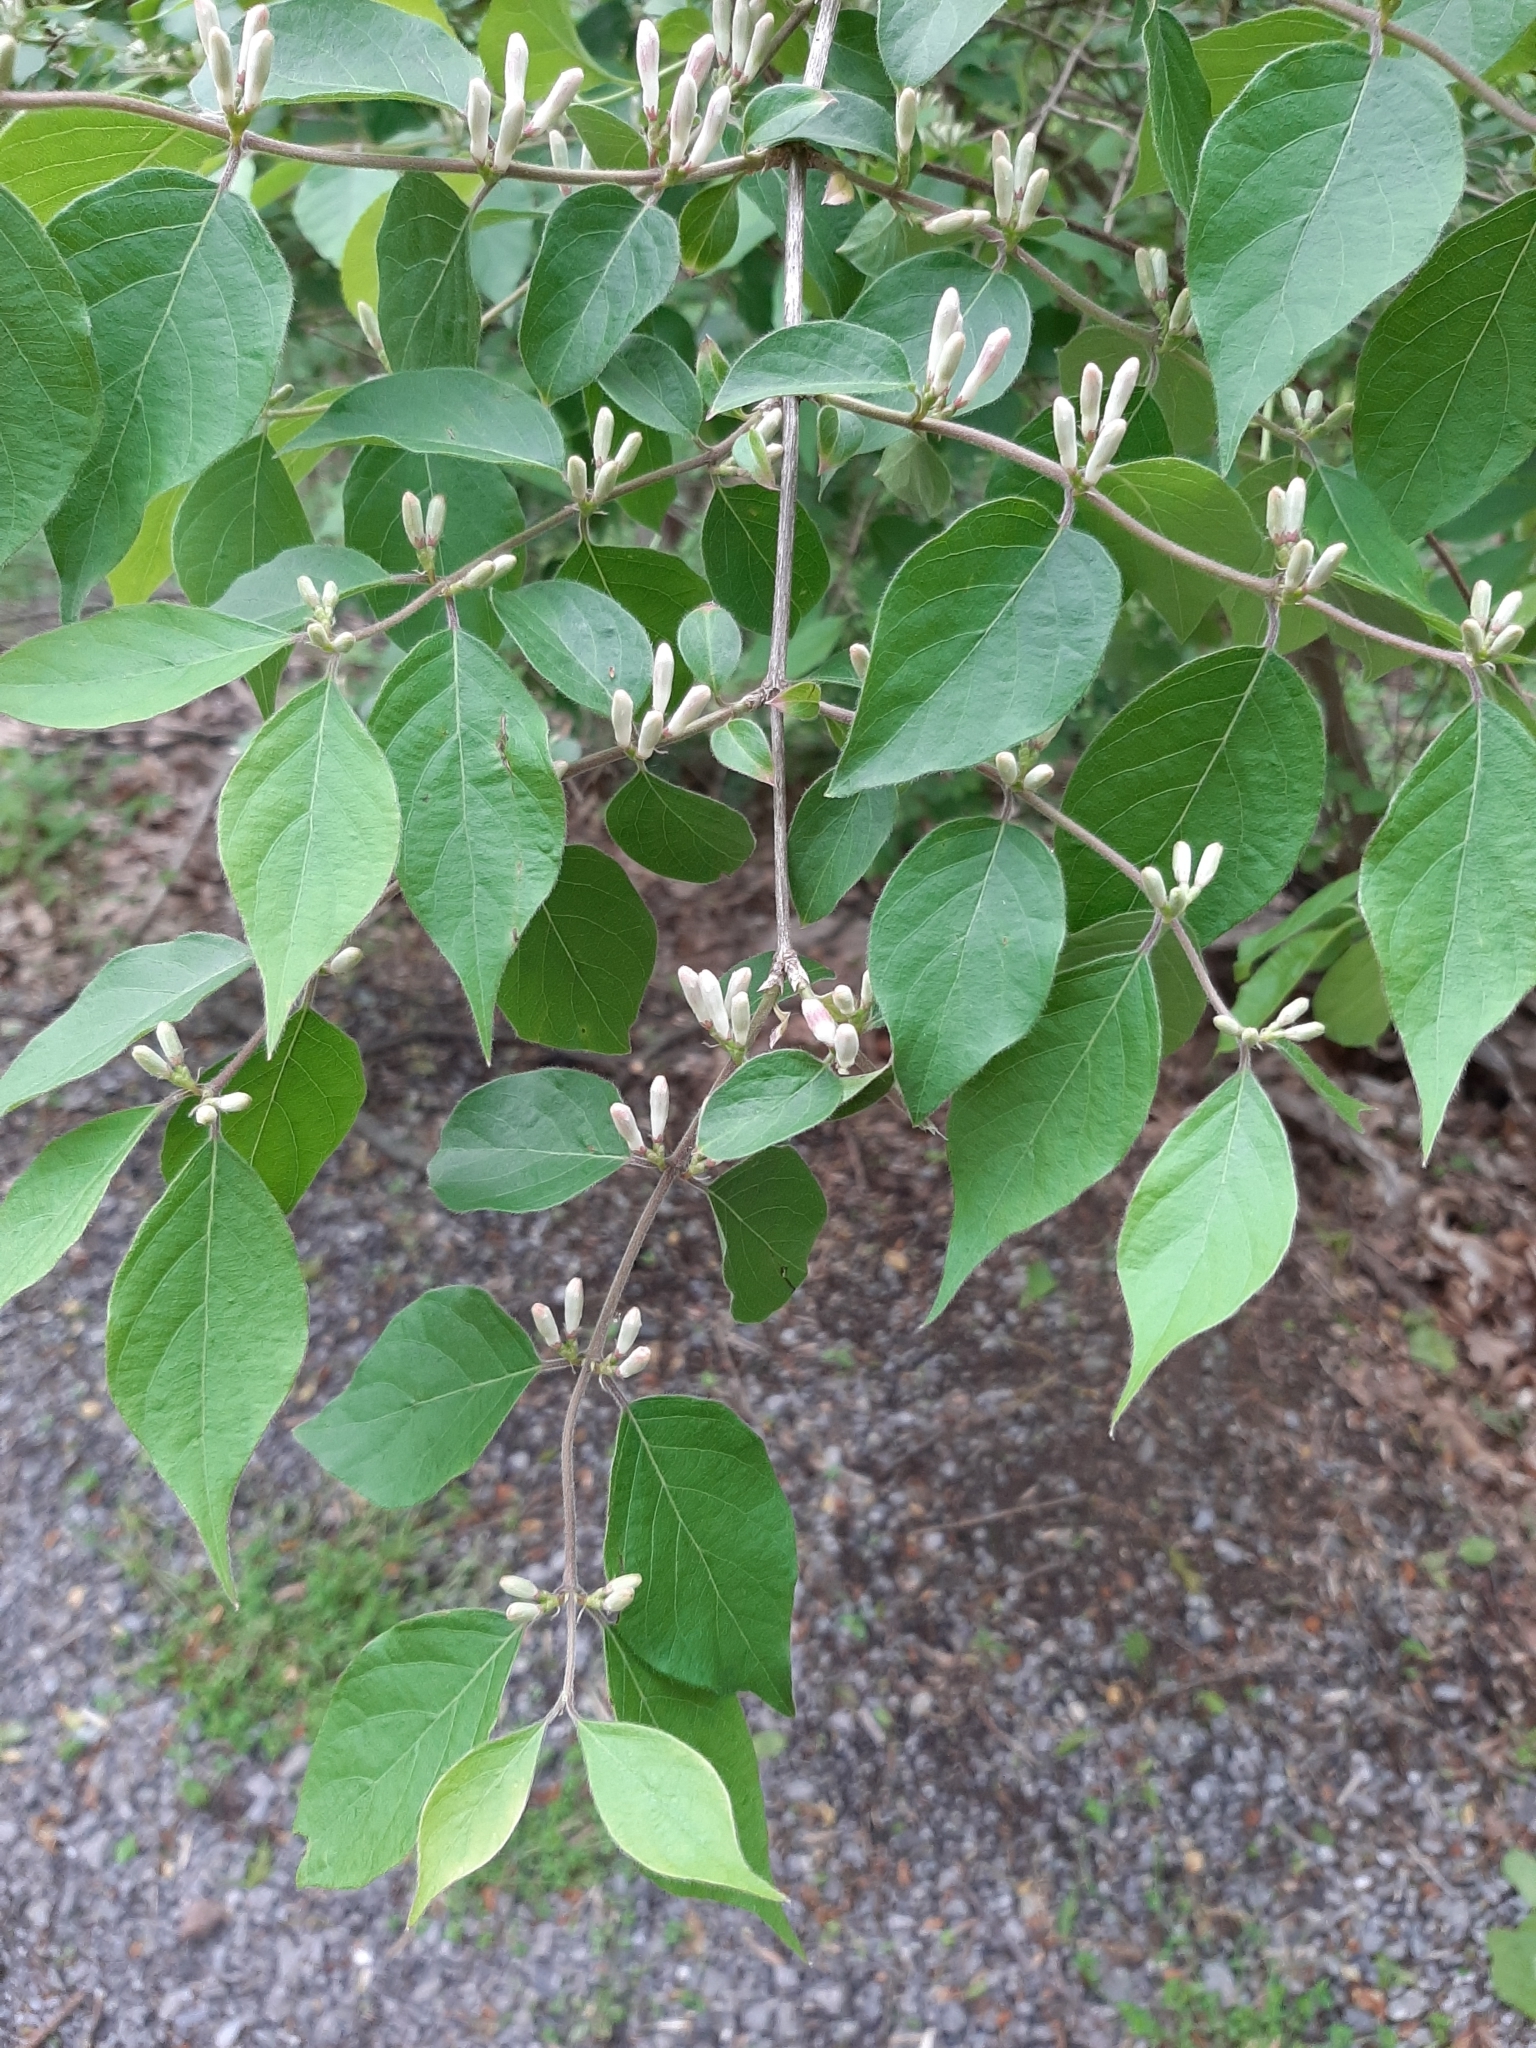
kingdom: Plantae
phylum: Tracheophyta
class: Magnoliopsida
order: Dipsacales
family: Caprifoliaceae
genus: Lonicera
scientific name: Lonicera maackii
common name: Amur honeysuckle
